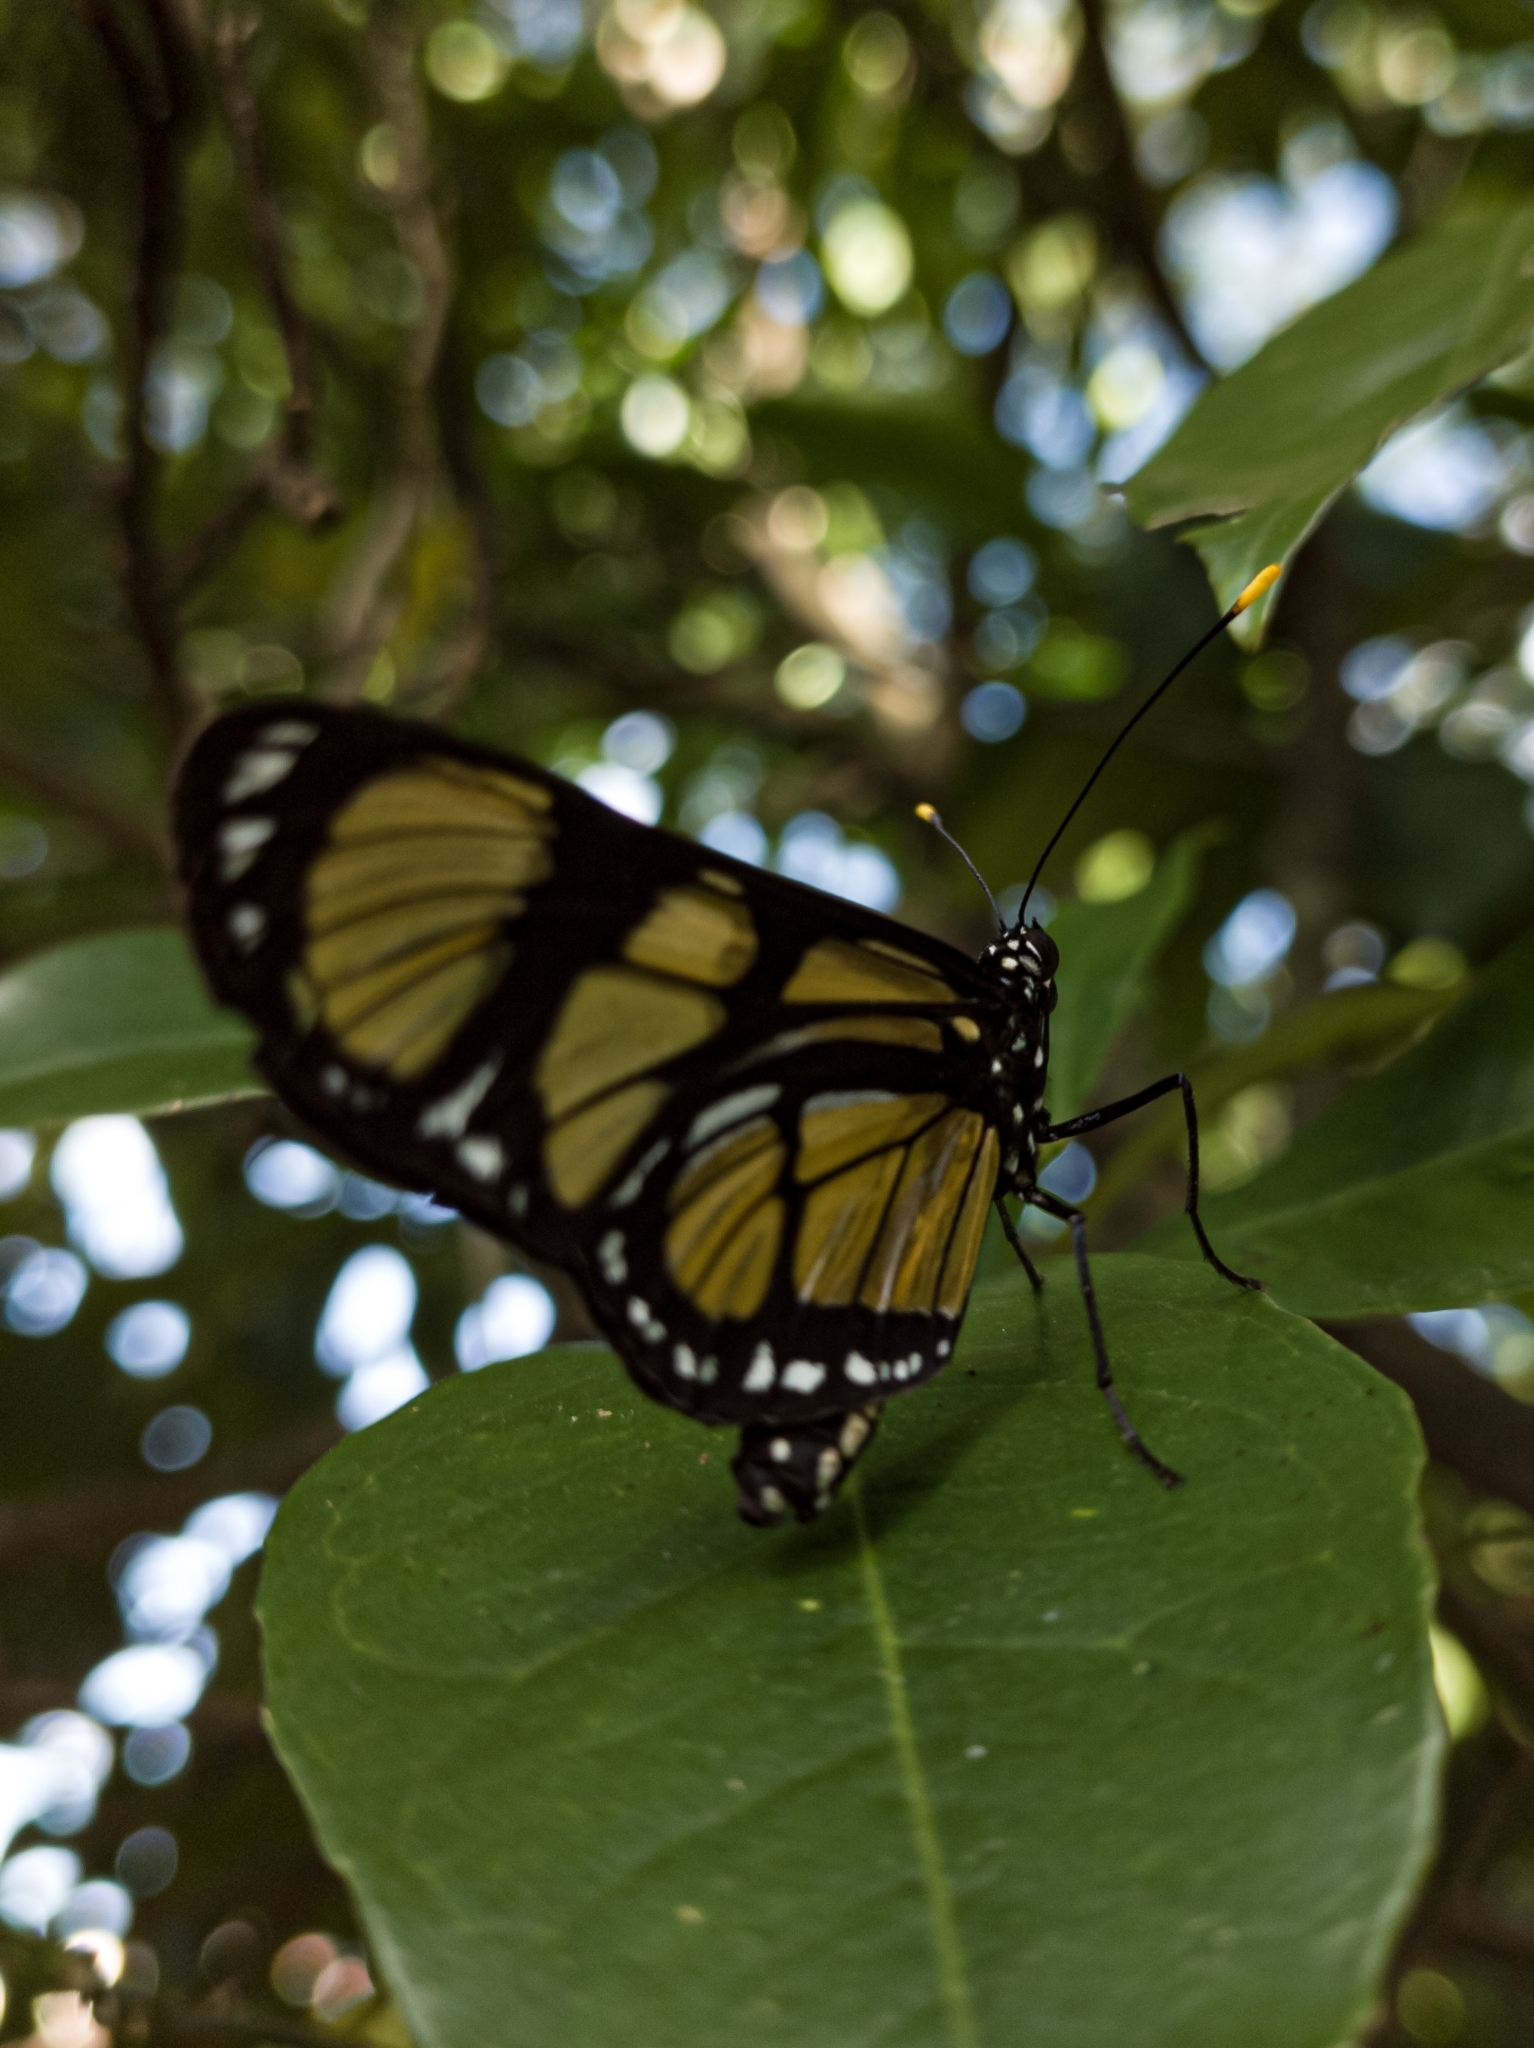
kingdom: Animalia
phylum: Arthropoda
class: Insecta
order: Lepidoptera
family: Nymphalidae
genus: Methona
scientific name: Methona themisto
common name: Themisto amberwing
